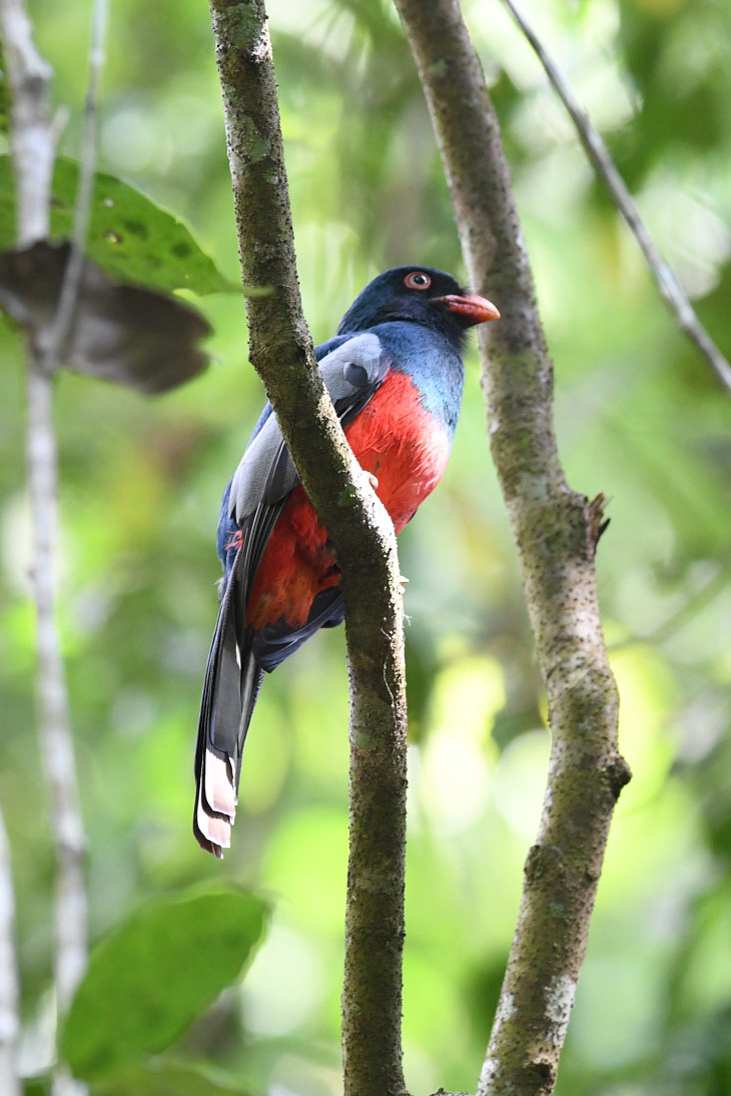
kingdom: Animalia
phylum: Chordata
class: Aves
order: Trogoniformes
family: Trogonidae
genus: Trogon
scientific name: Trogon massena
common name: Slaty-tailed trogon
